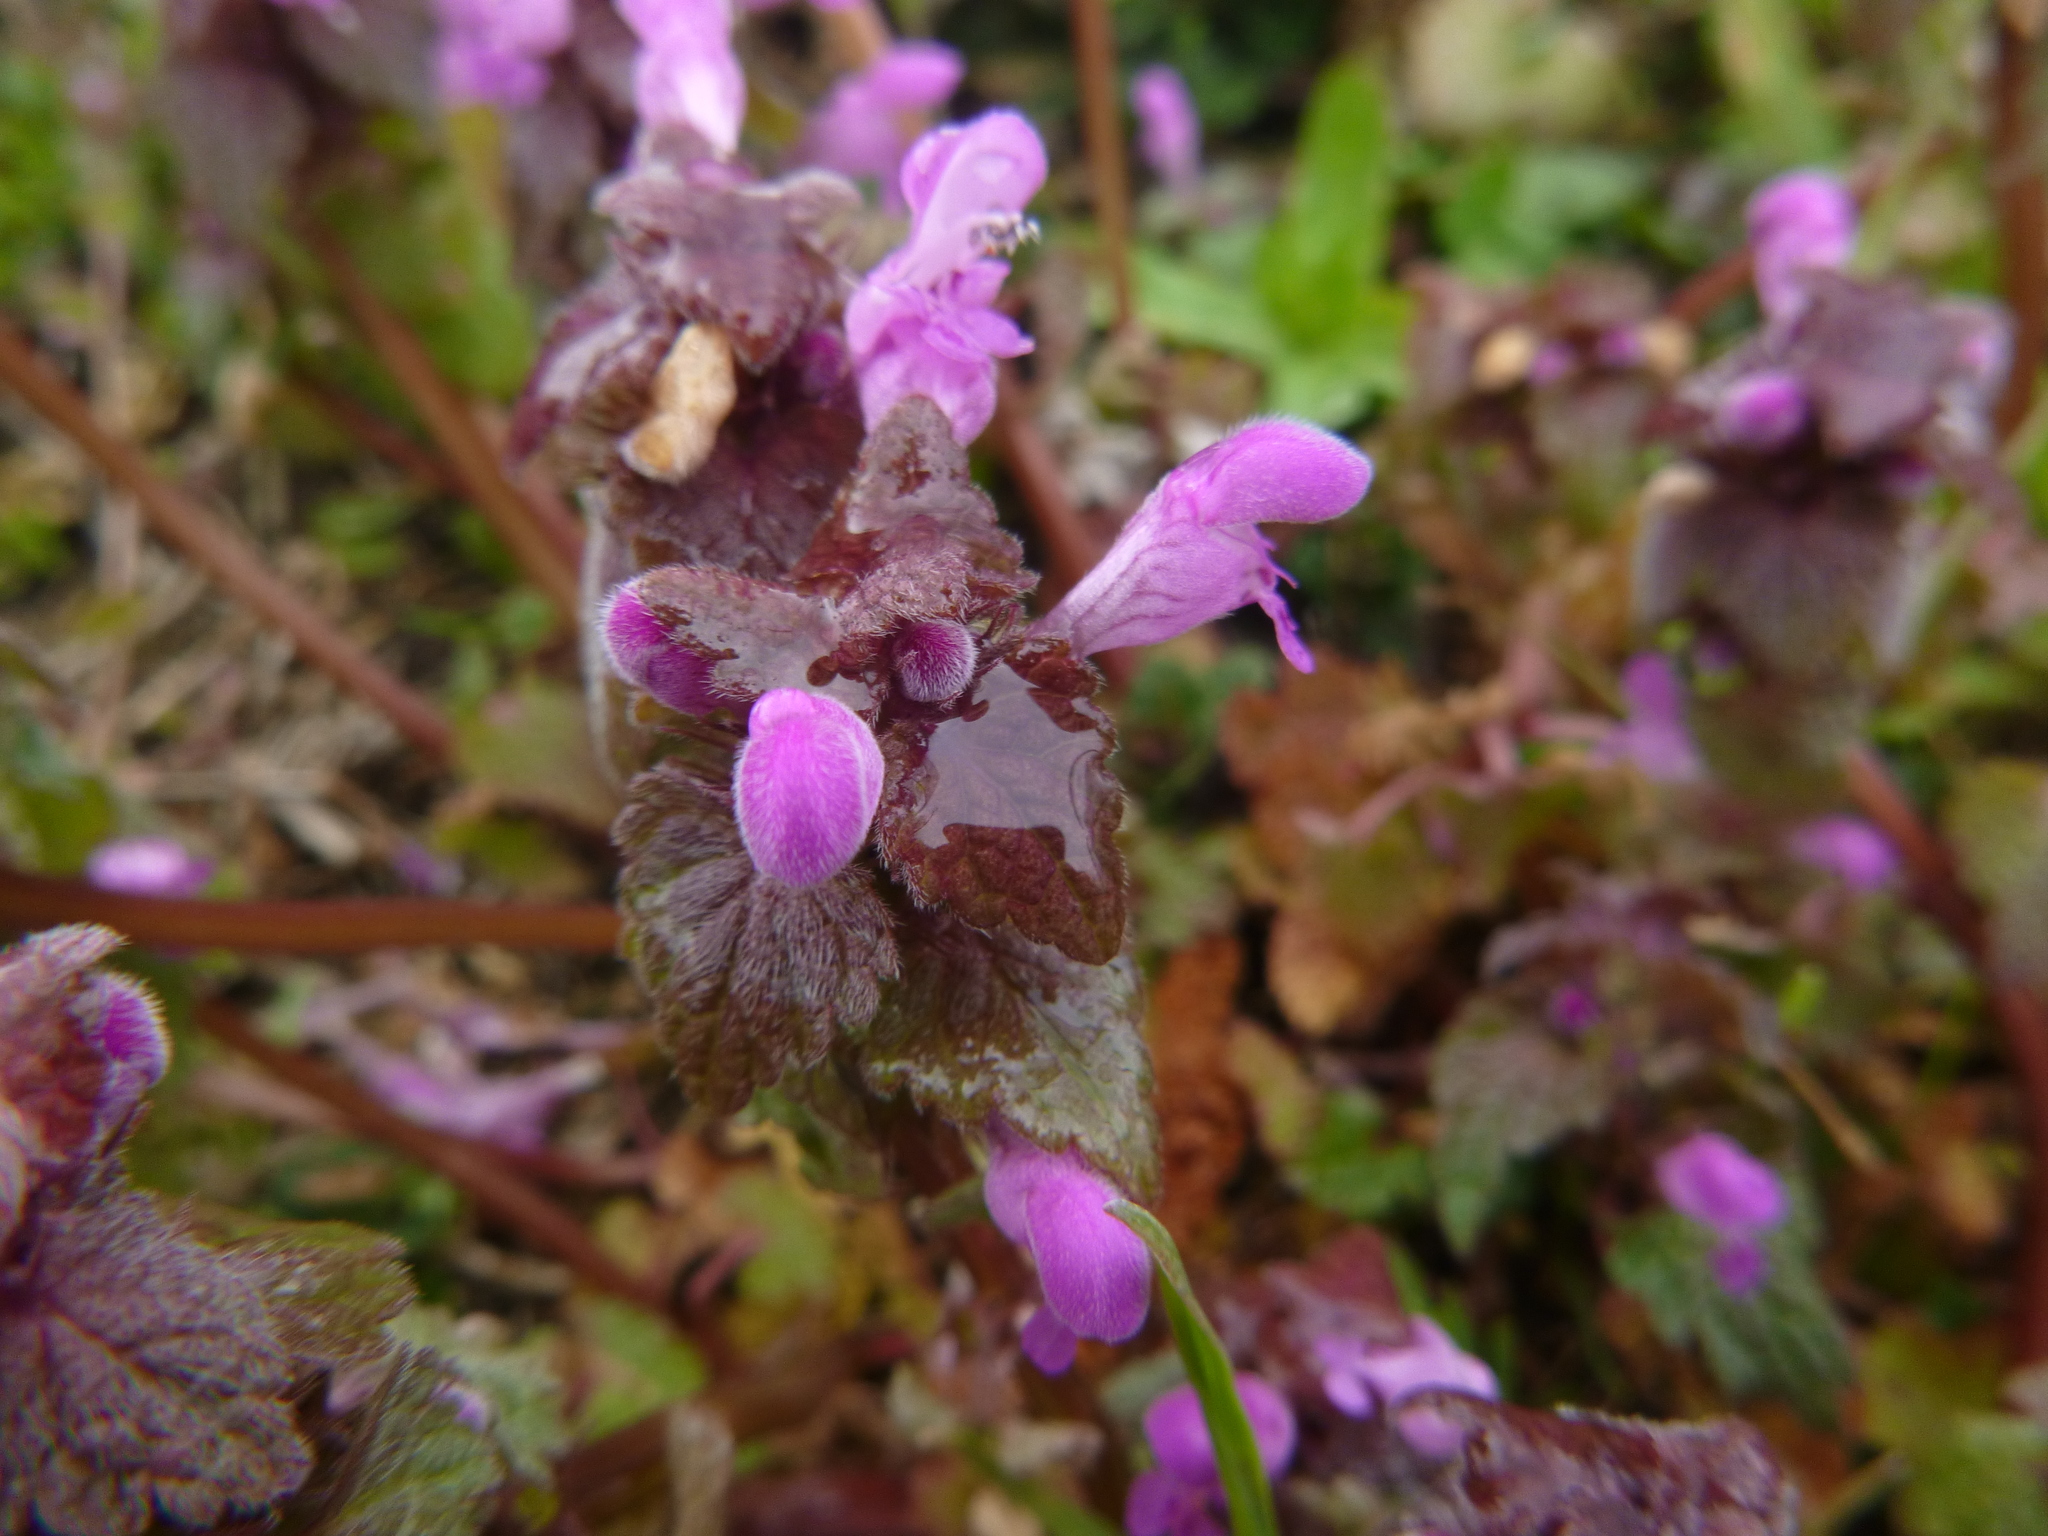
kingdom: Plantae
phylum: Tracheophyta
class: Magnoliopsida
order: Lamiales
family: Lamiaceae
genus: Lamium
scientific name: Lamium purpureum
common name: Red dead-nettle
